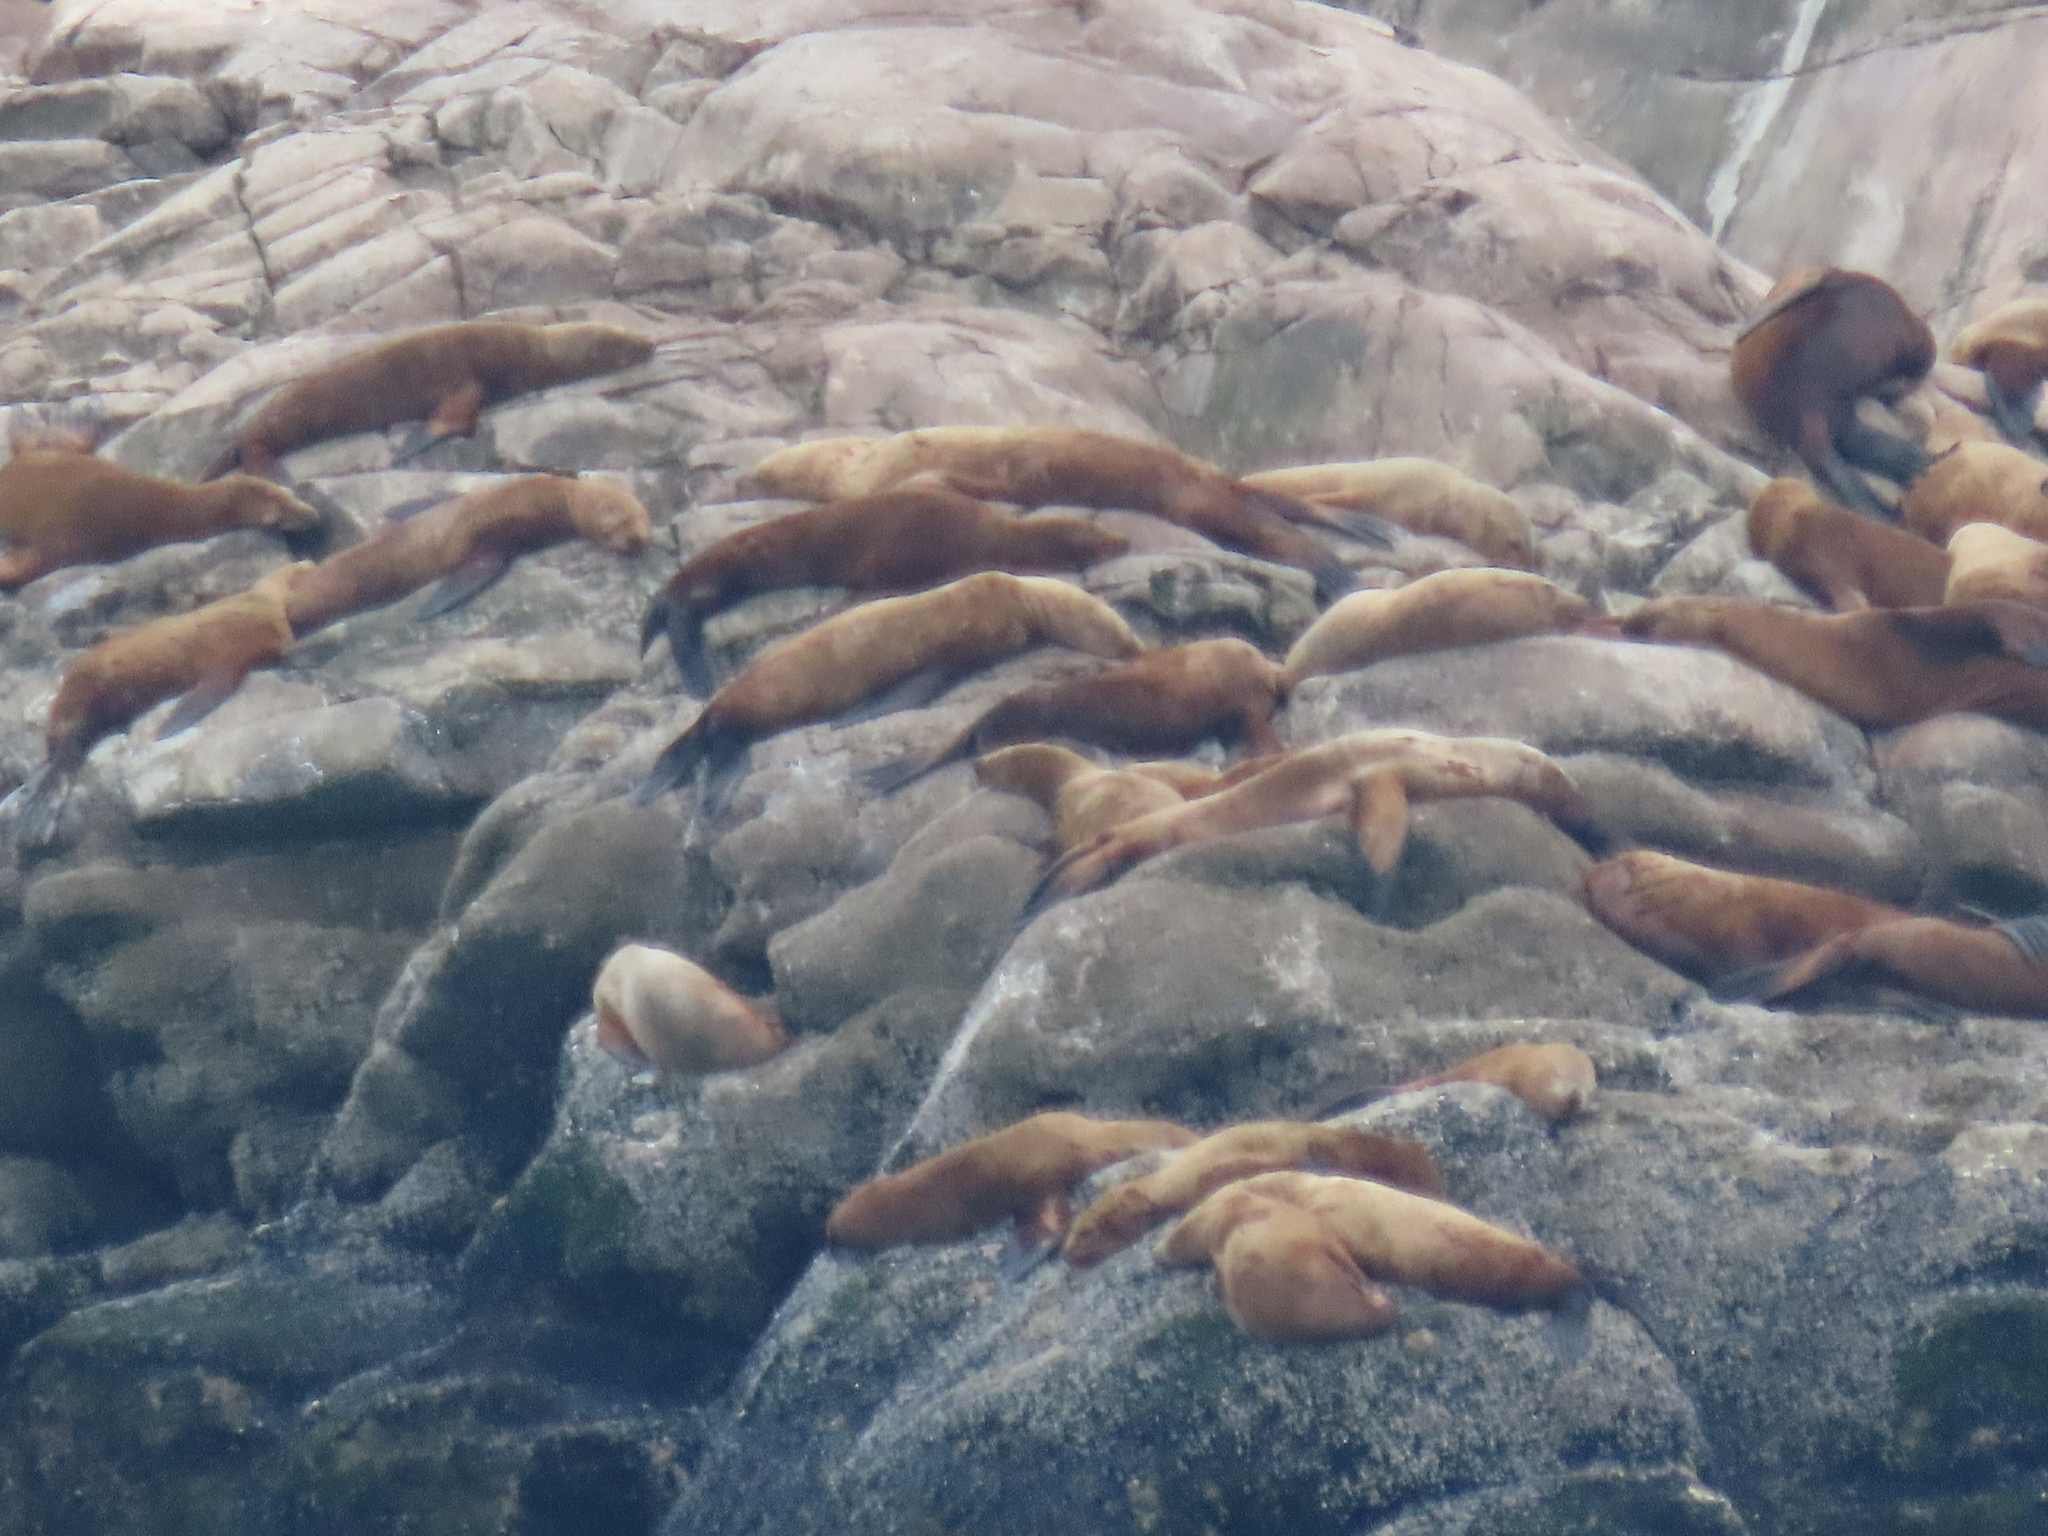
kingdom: Animalia
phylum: Chordata
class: Mammalia
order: Carnivora
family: Otariidae
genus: Eumetopias
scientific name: Eumetopias jubatus
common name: Steller sea lion
